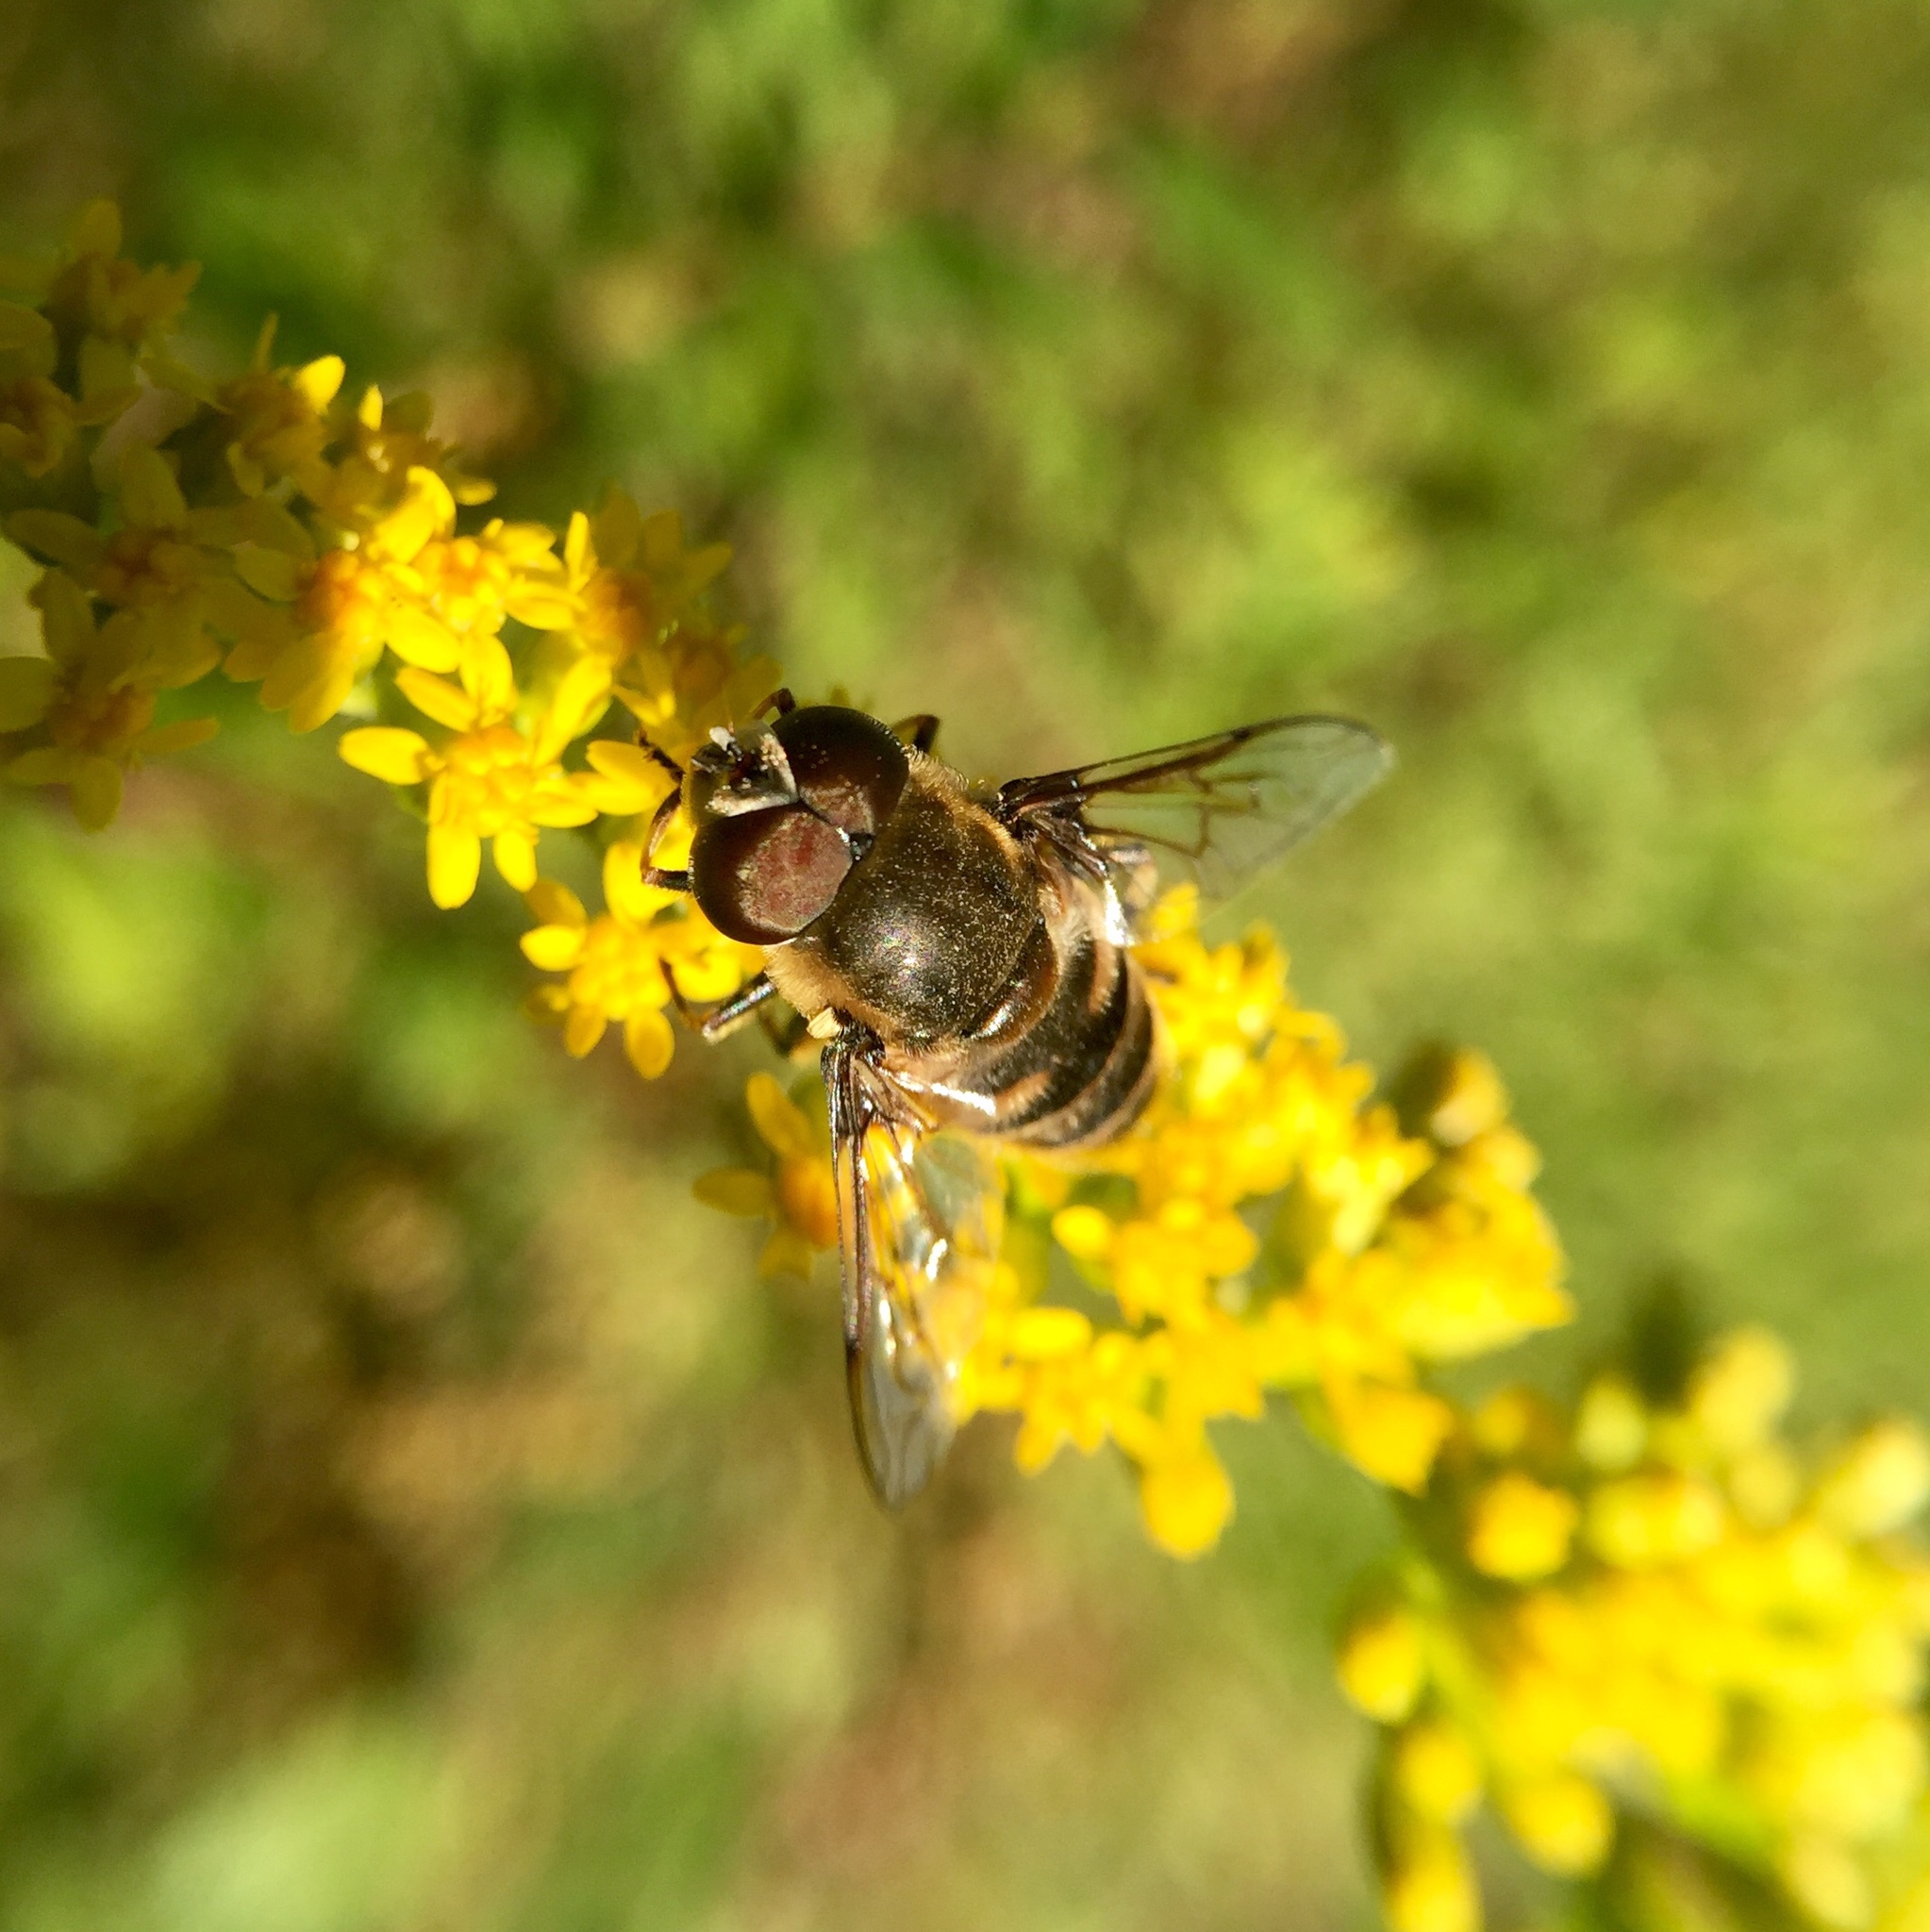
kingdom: Animalia
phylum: Arthropoda
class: Insecta
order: Diptera
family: Syrphidae
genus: Eristalis
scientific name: Eristalis dimidiata
